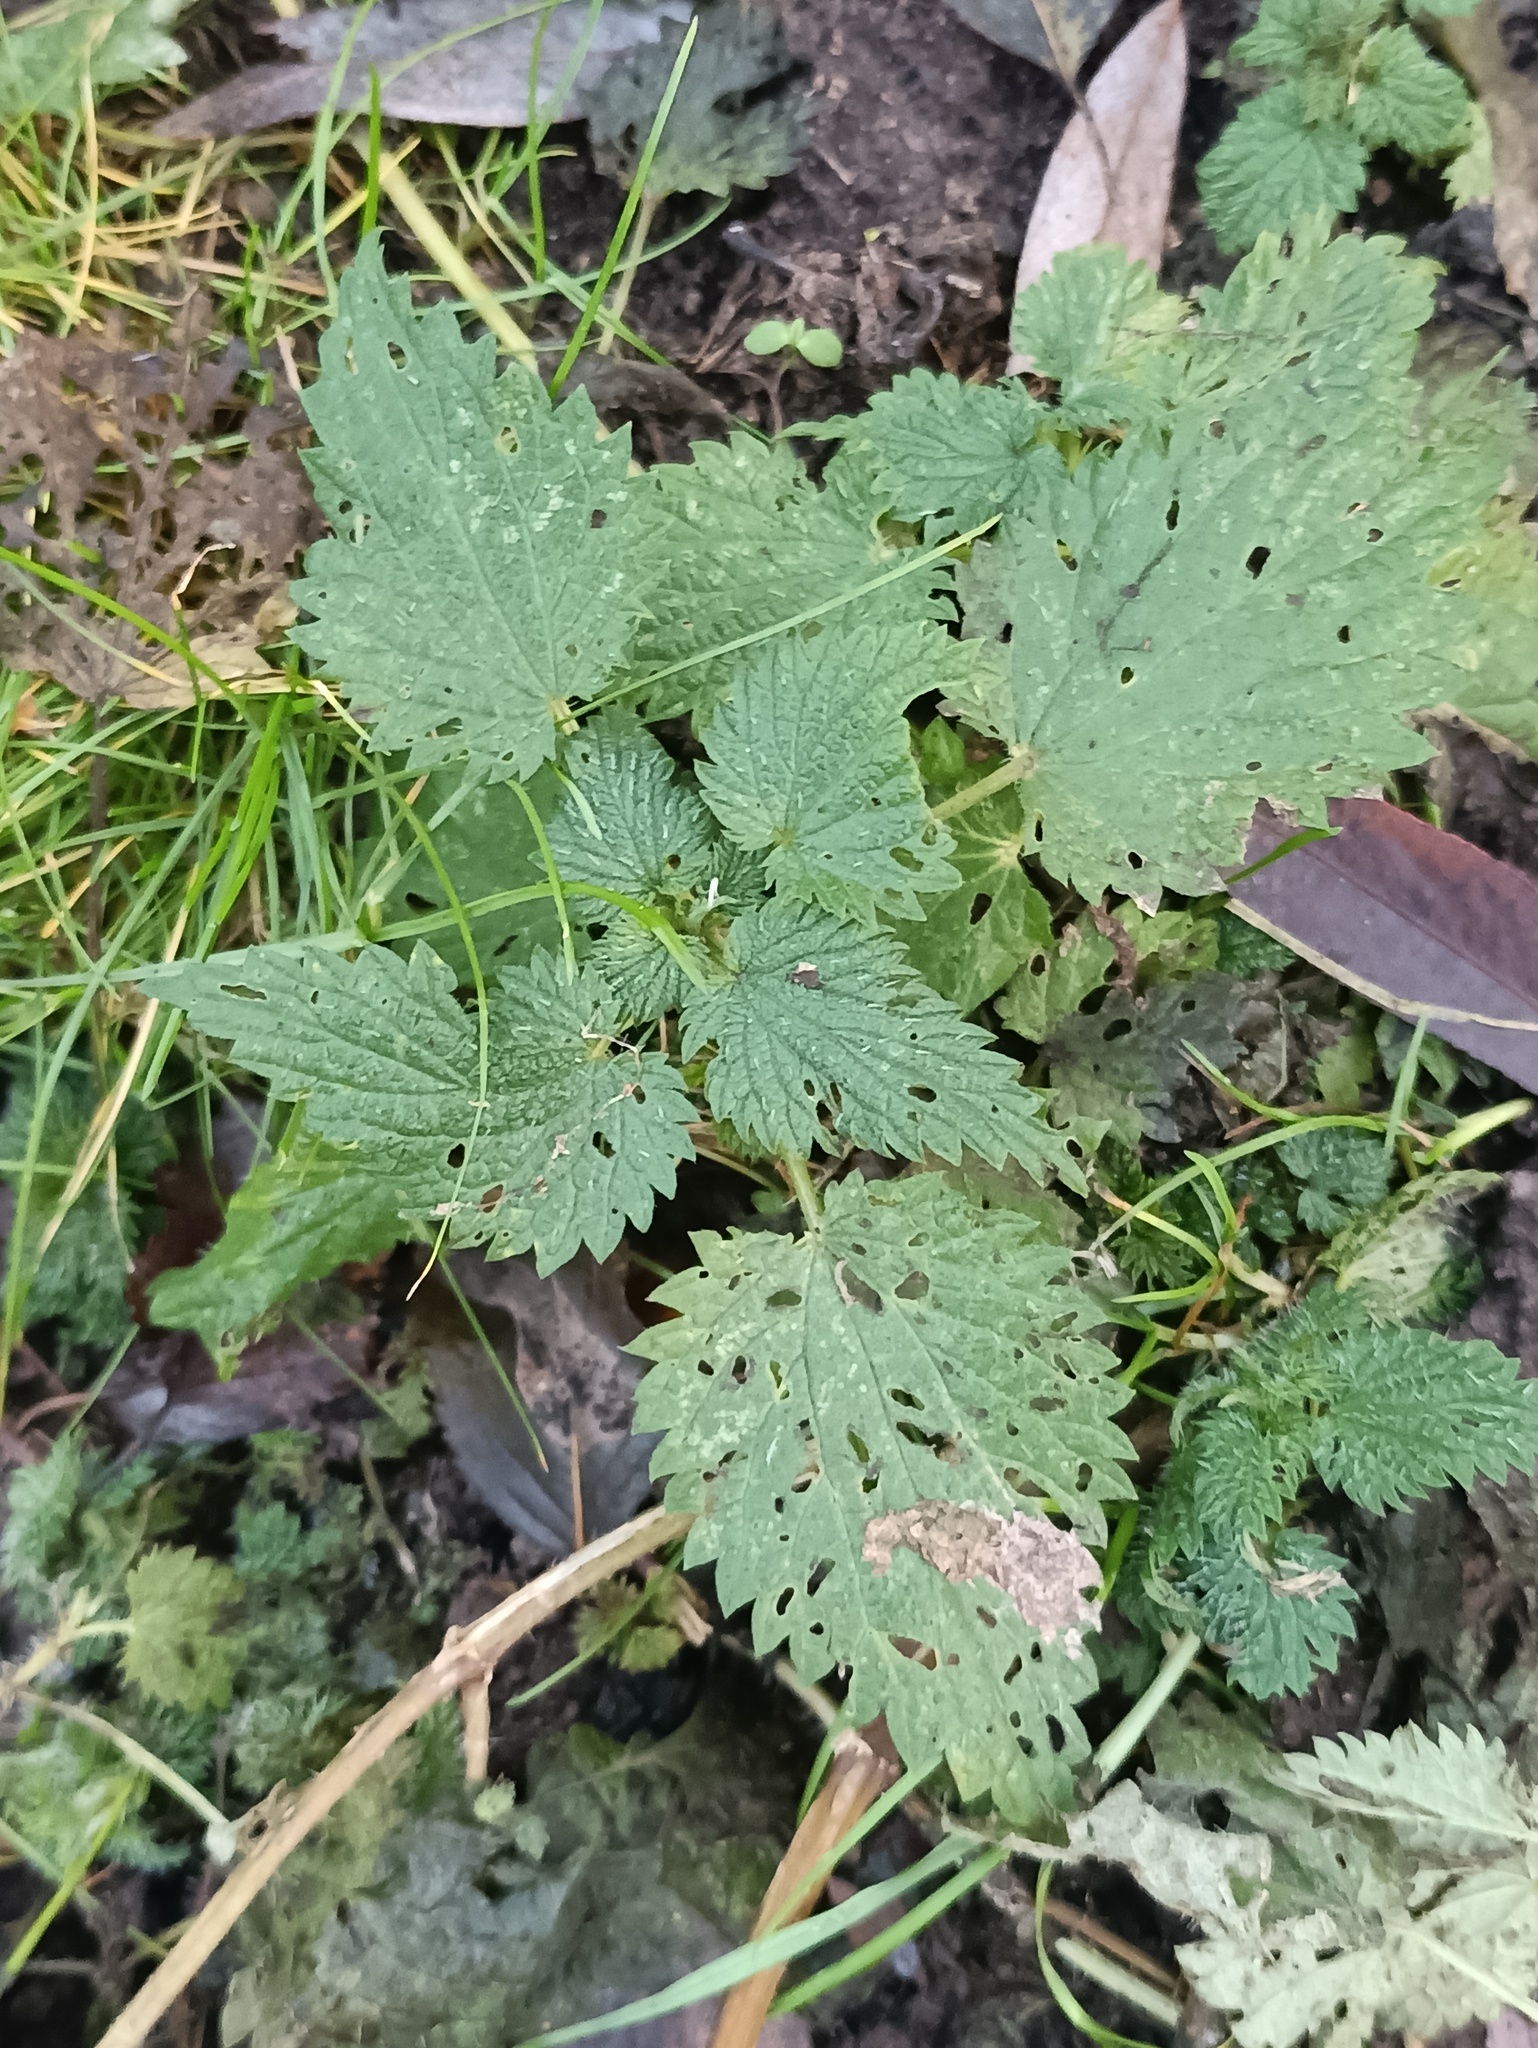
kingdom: Plantae
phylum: Tracheophyta
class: Magnoliopsida
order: Rosales
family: Urticaceae
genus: Urtica
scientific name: Urtica dioica
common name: Common nettle
